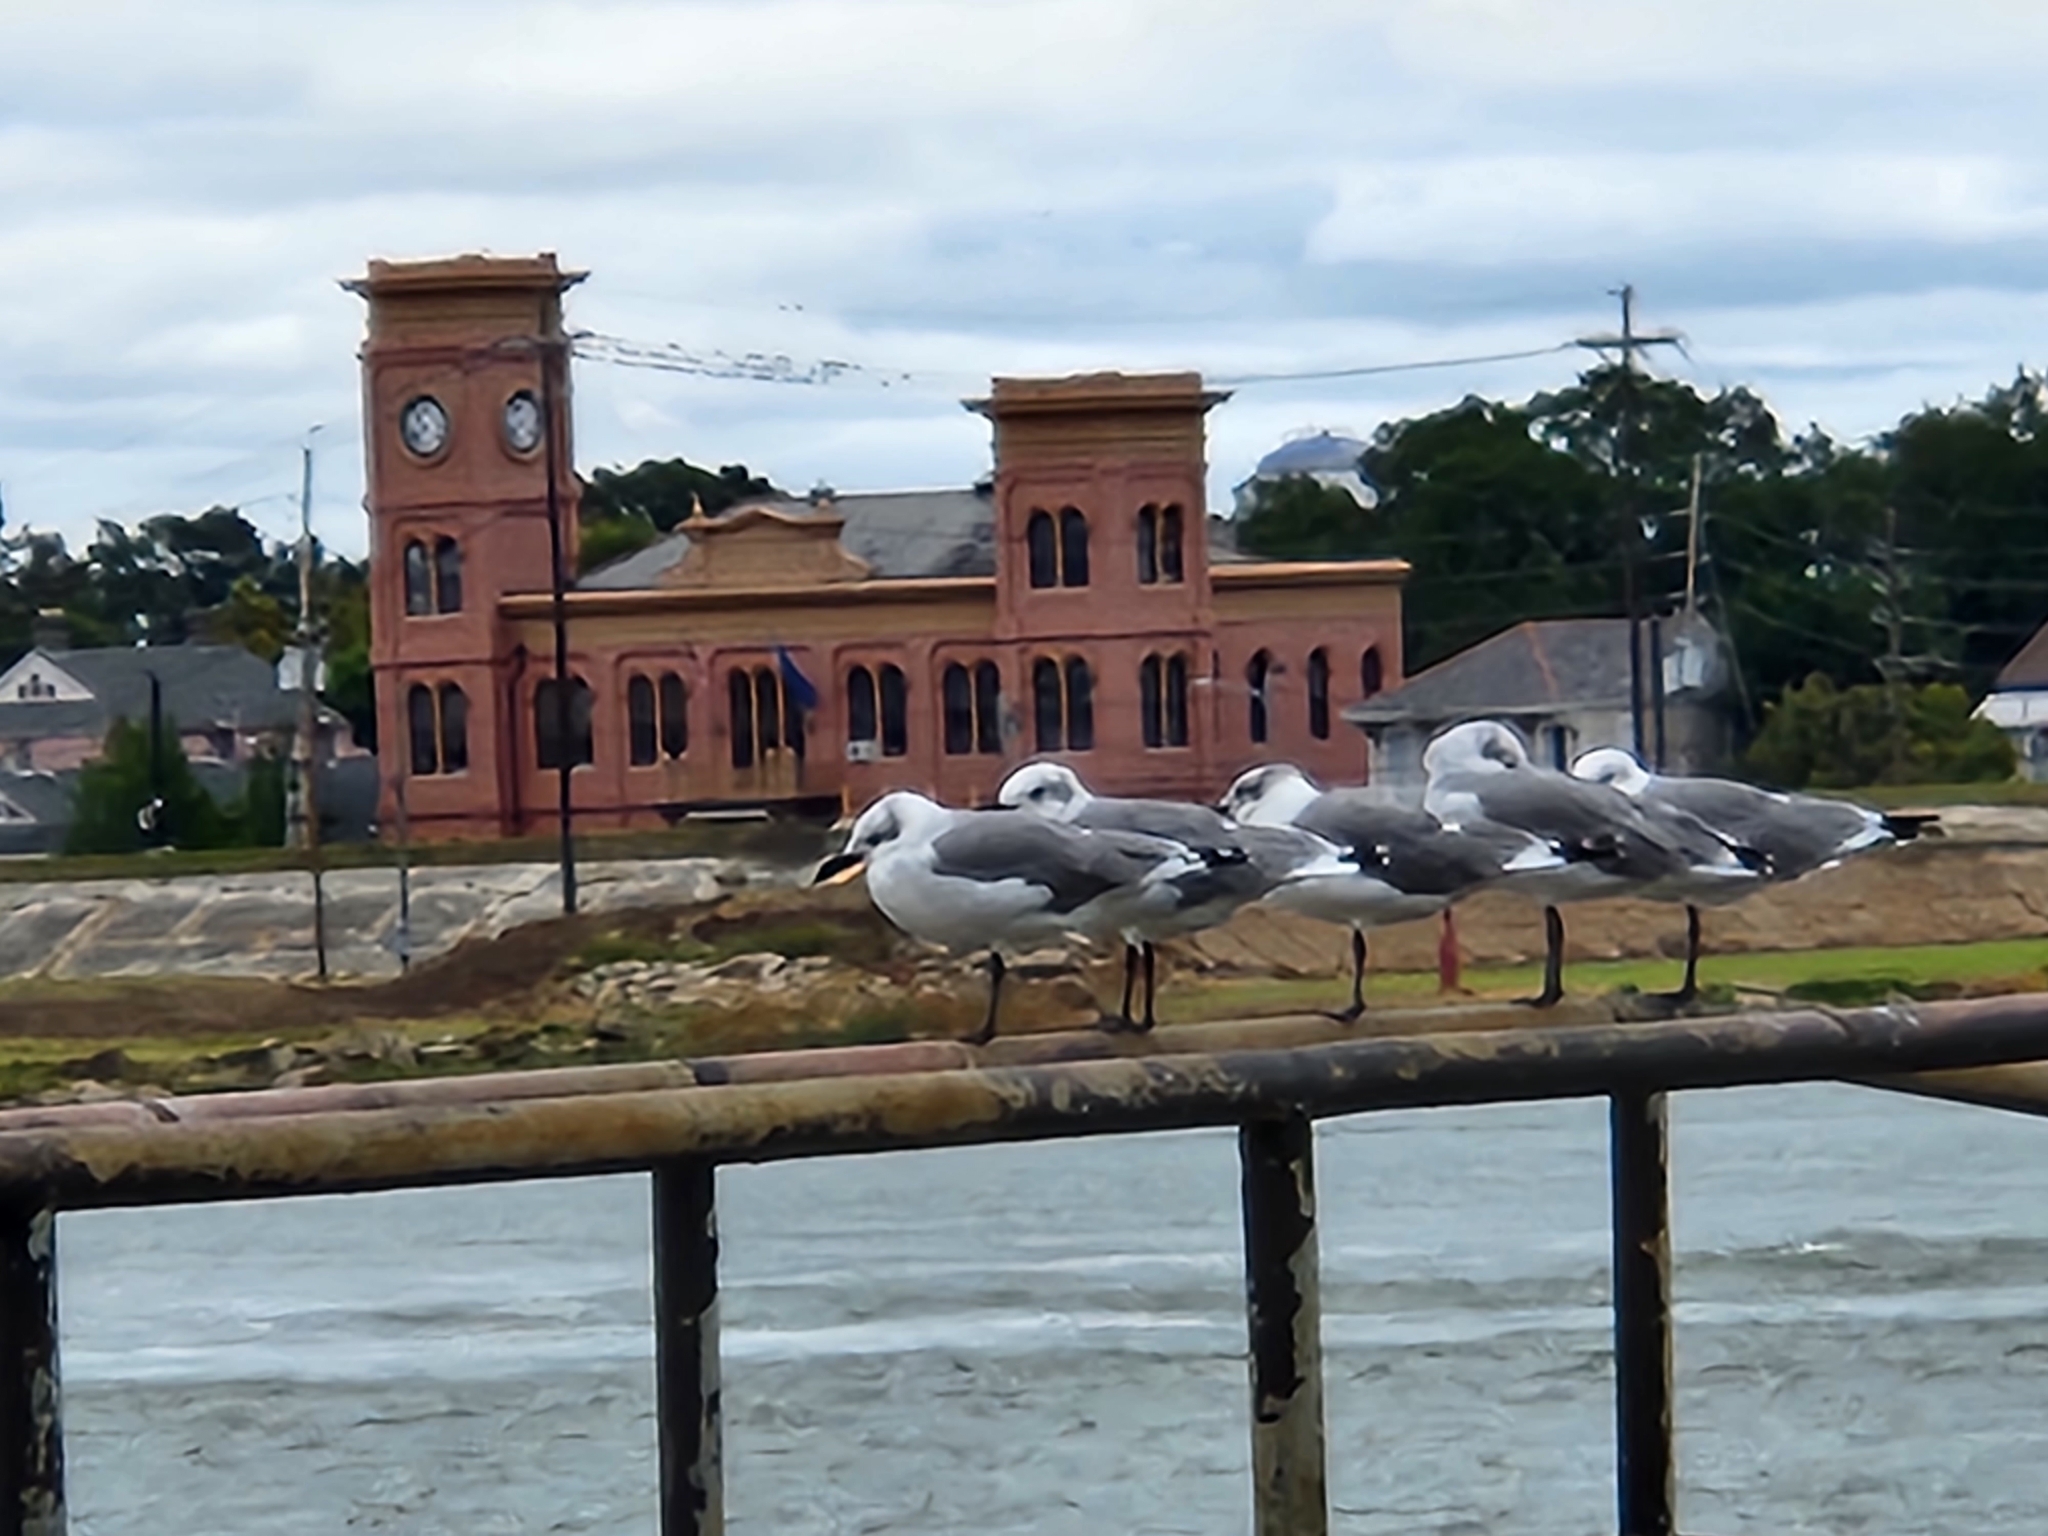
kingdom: Animalia
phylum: Chordata
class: Aves
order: Charadriiformes
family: Laridae
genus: Leucophaeus
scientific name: Leucophaeus atricilla
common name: Laughing gull
